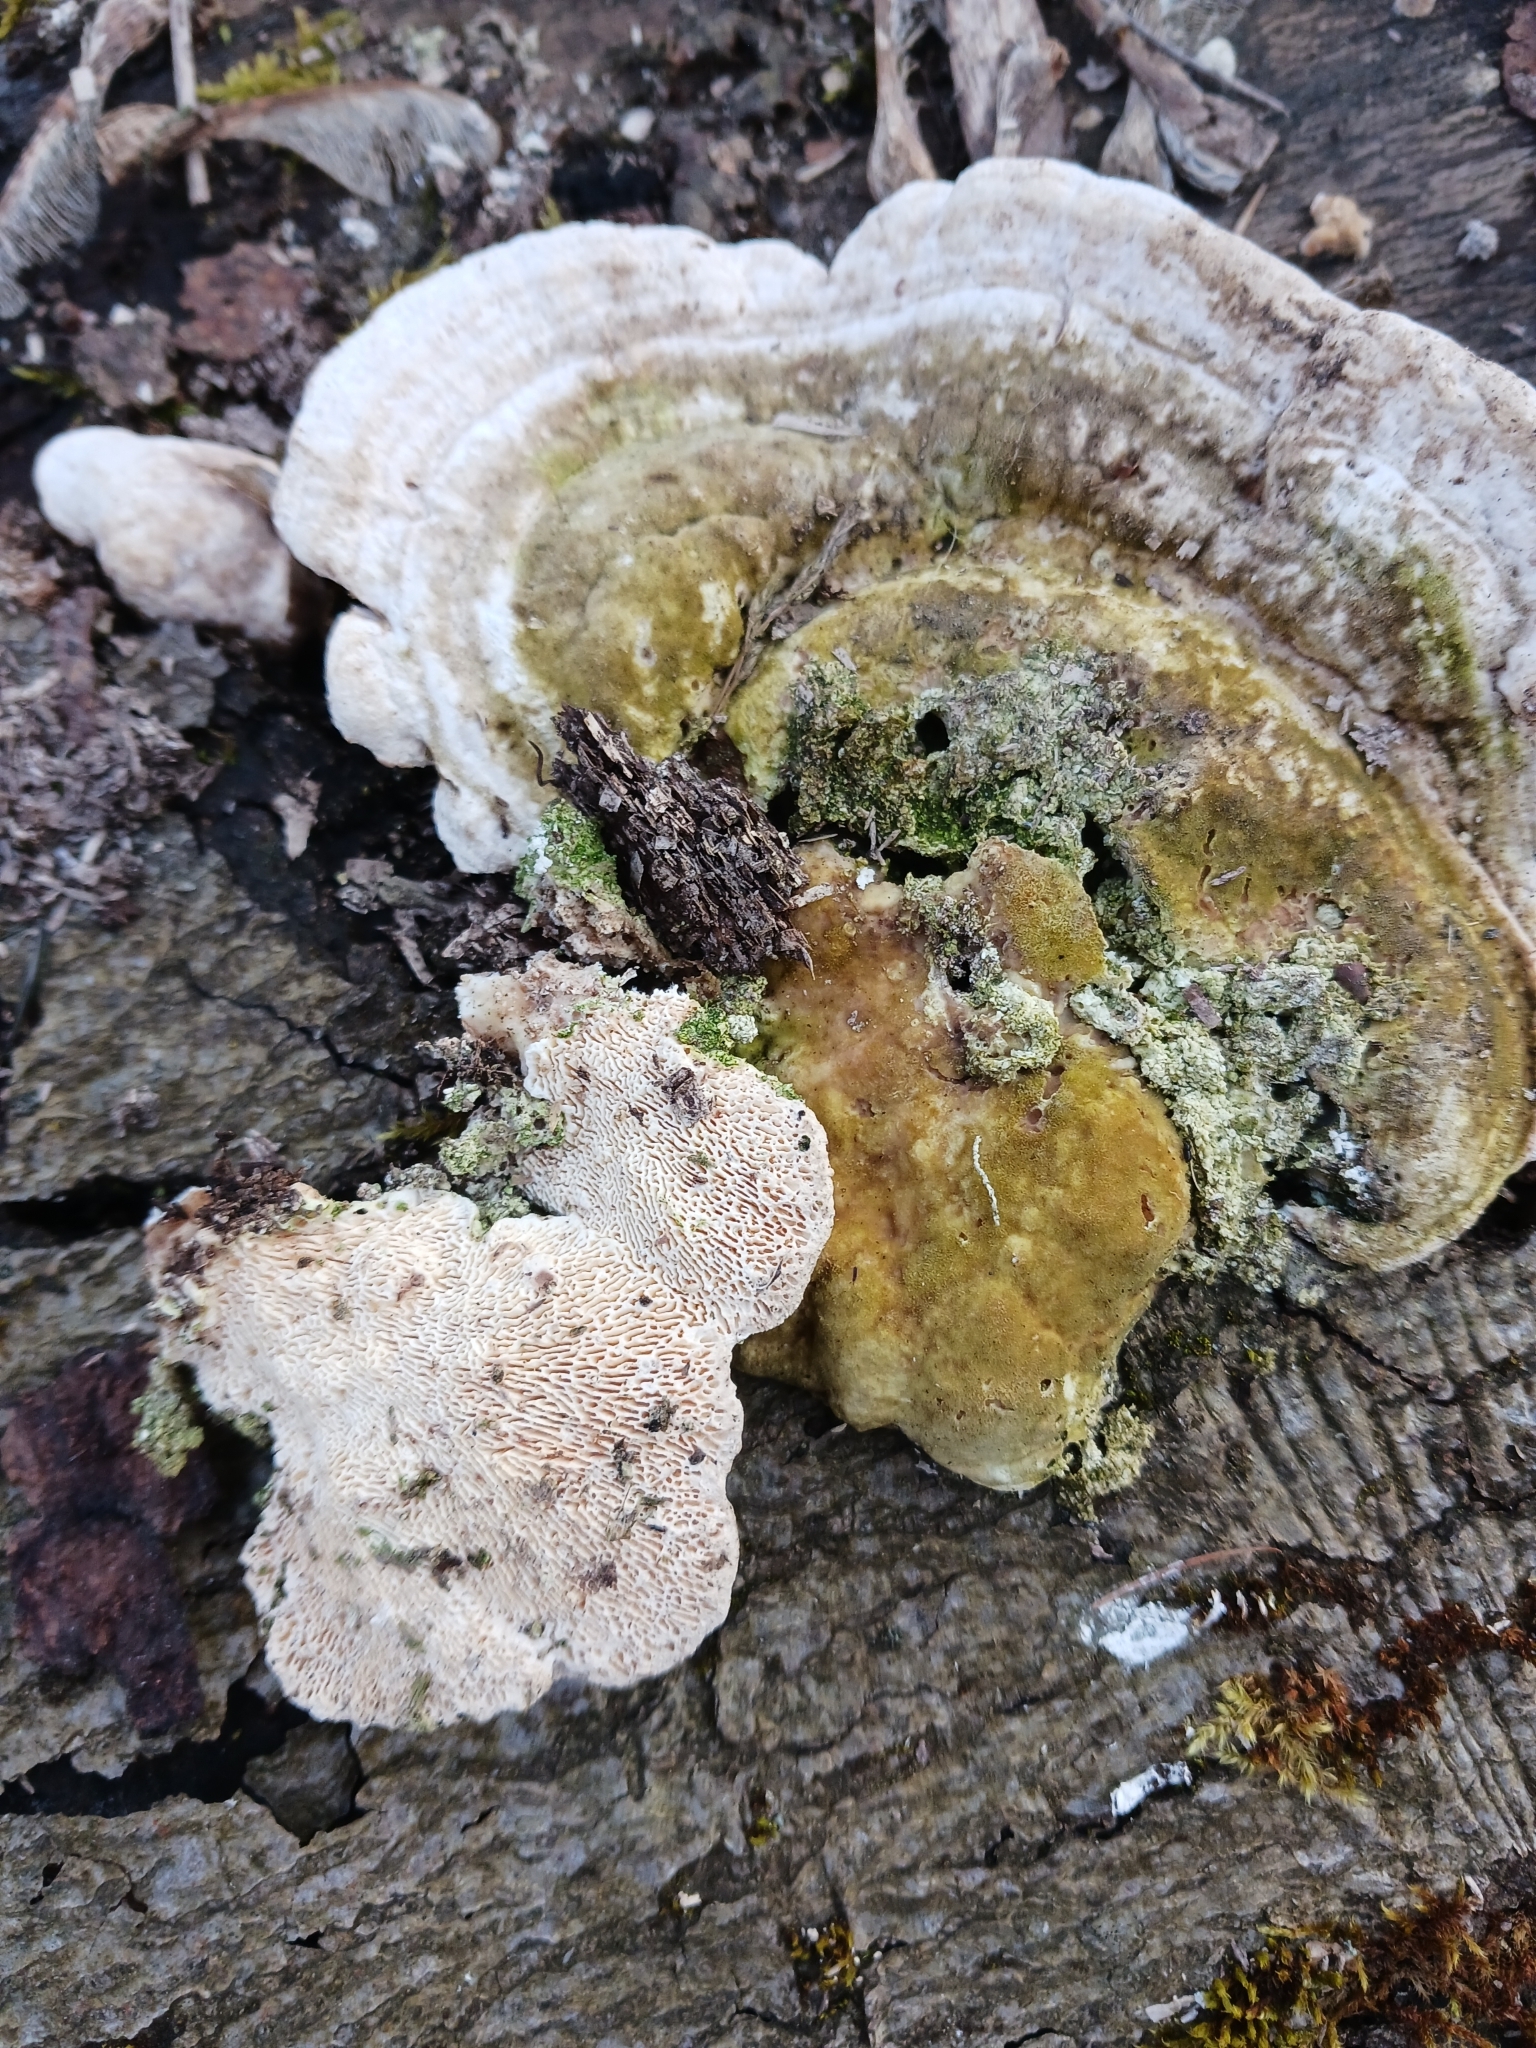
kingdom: Fungi
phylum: Basidiomycota
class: Agaricomycetes
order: Polyporales
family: Polyporaceae
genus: Trametes
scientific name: Trametes gibbosa
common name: Lumpy bracket
